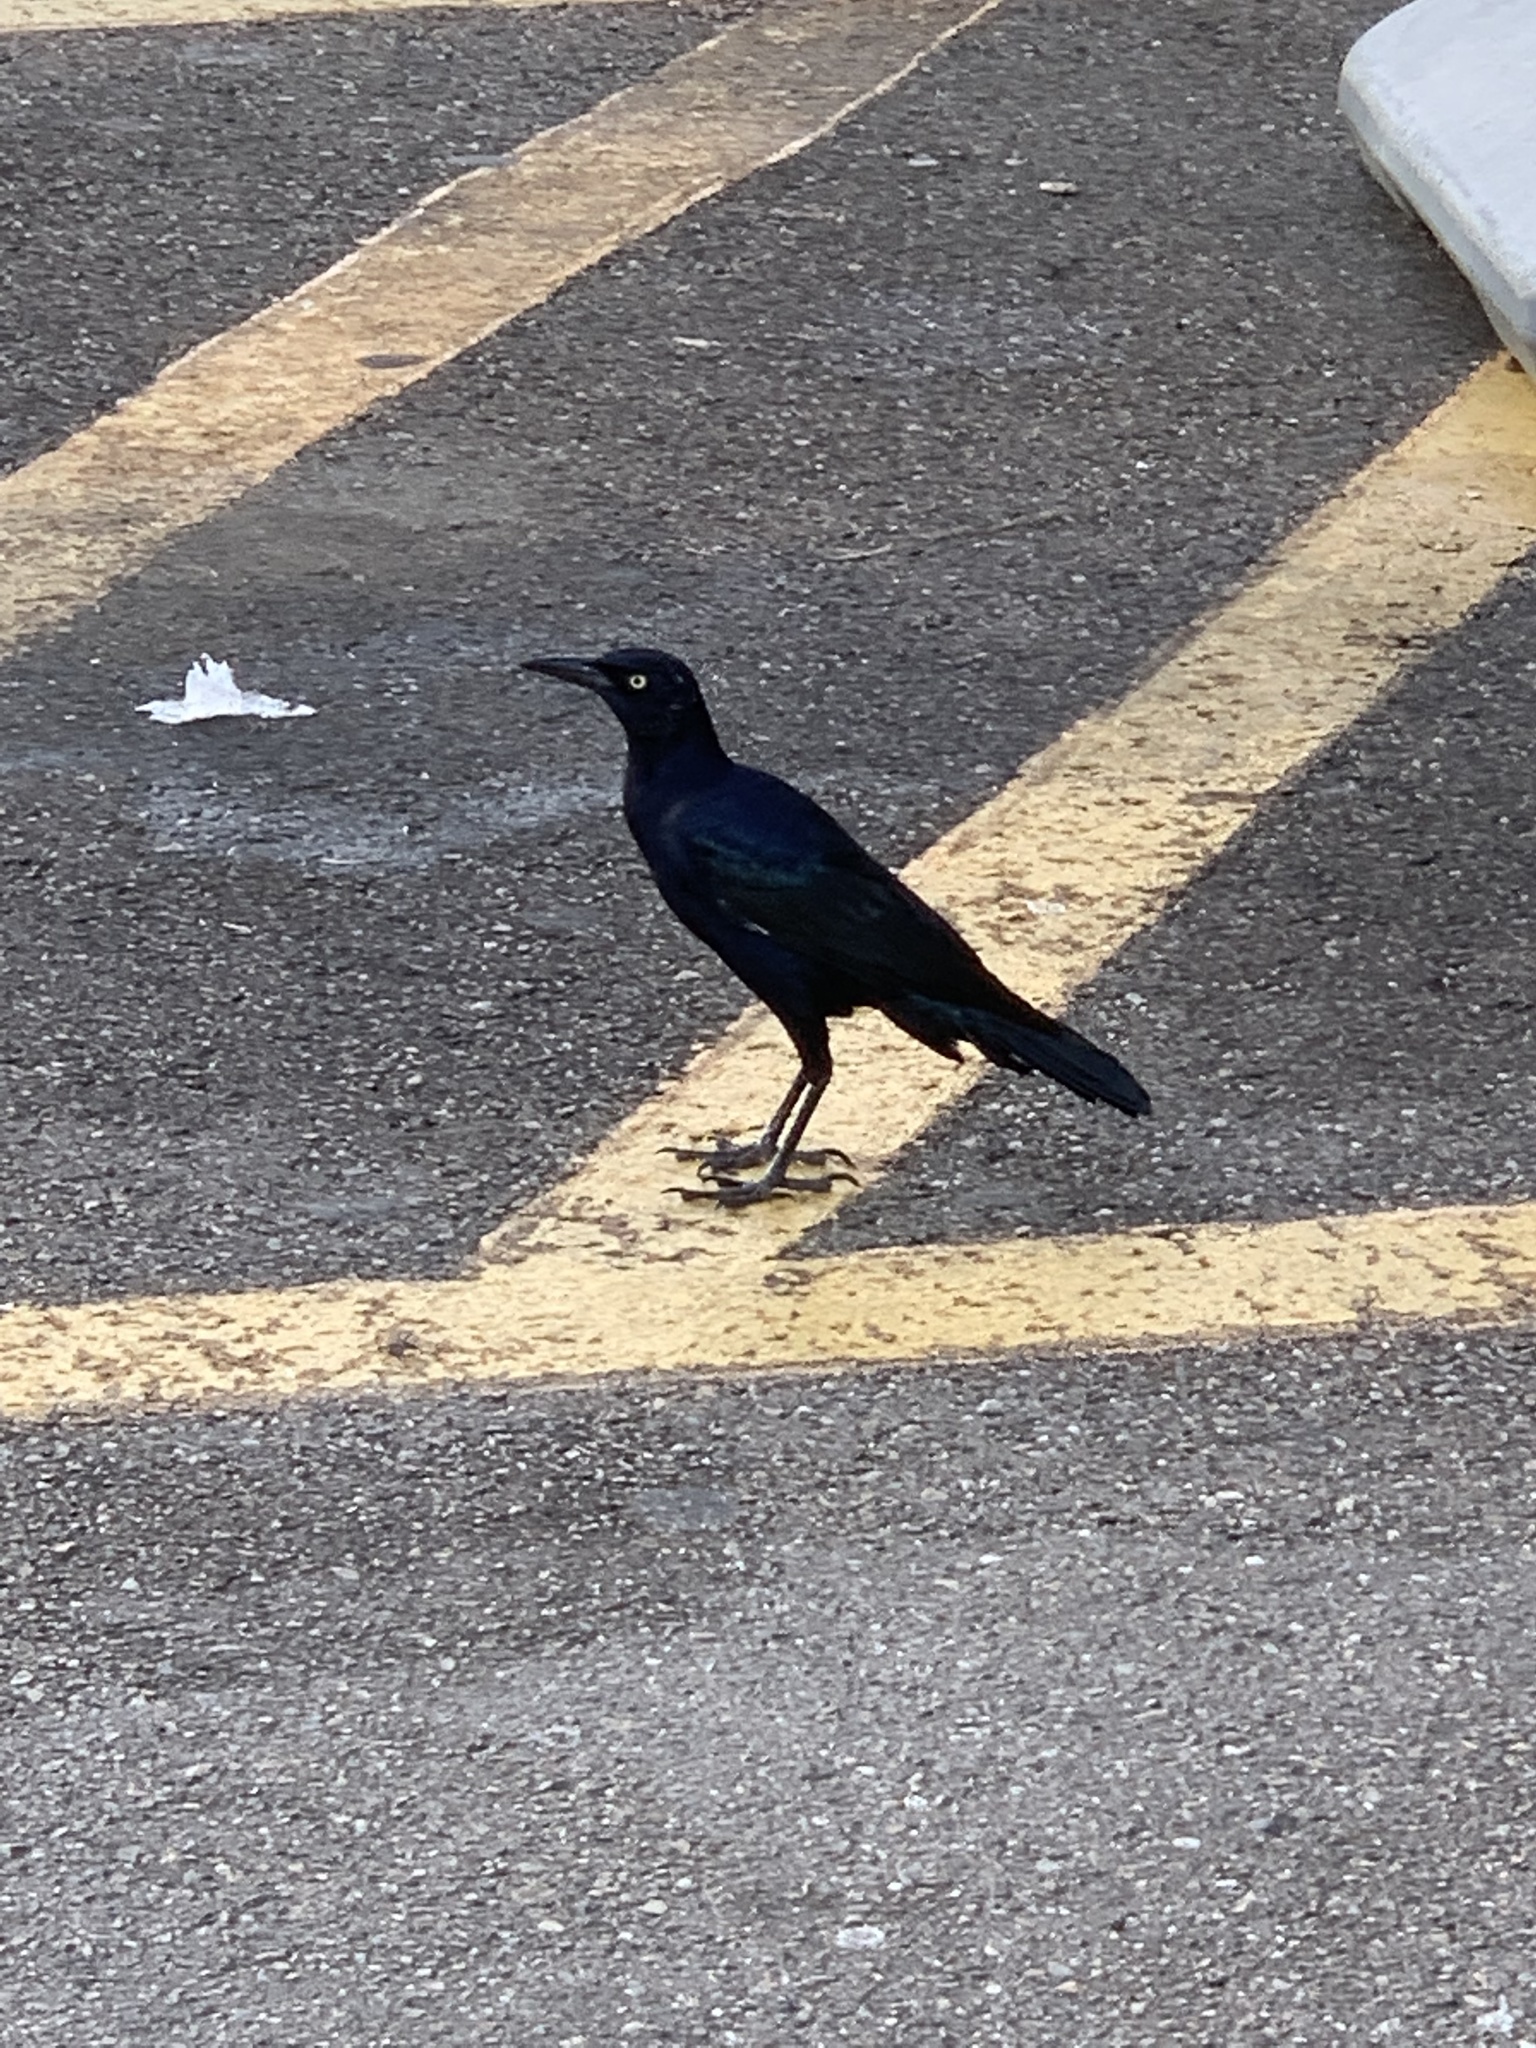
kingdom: Animalia
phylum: Chordata
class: Aves
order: Passeriformes
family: Icteridae
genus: Quiscalus
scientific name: Quiscalus mexicanus
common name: Great-tailed grackle
